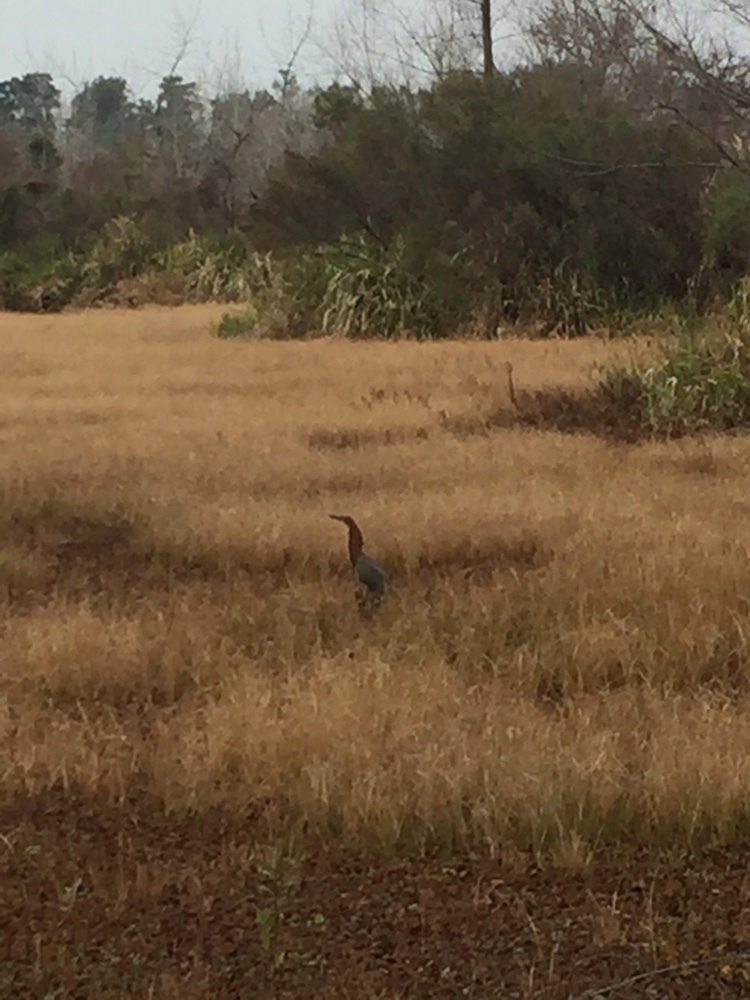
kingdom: Animalia
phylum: Chordata
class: Aves
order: Pelecaniformes
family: Ardeidae
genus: Tigrisoma
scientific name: Tigrisoma lineatum
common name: Rufescent tiger-heron
